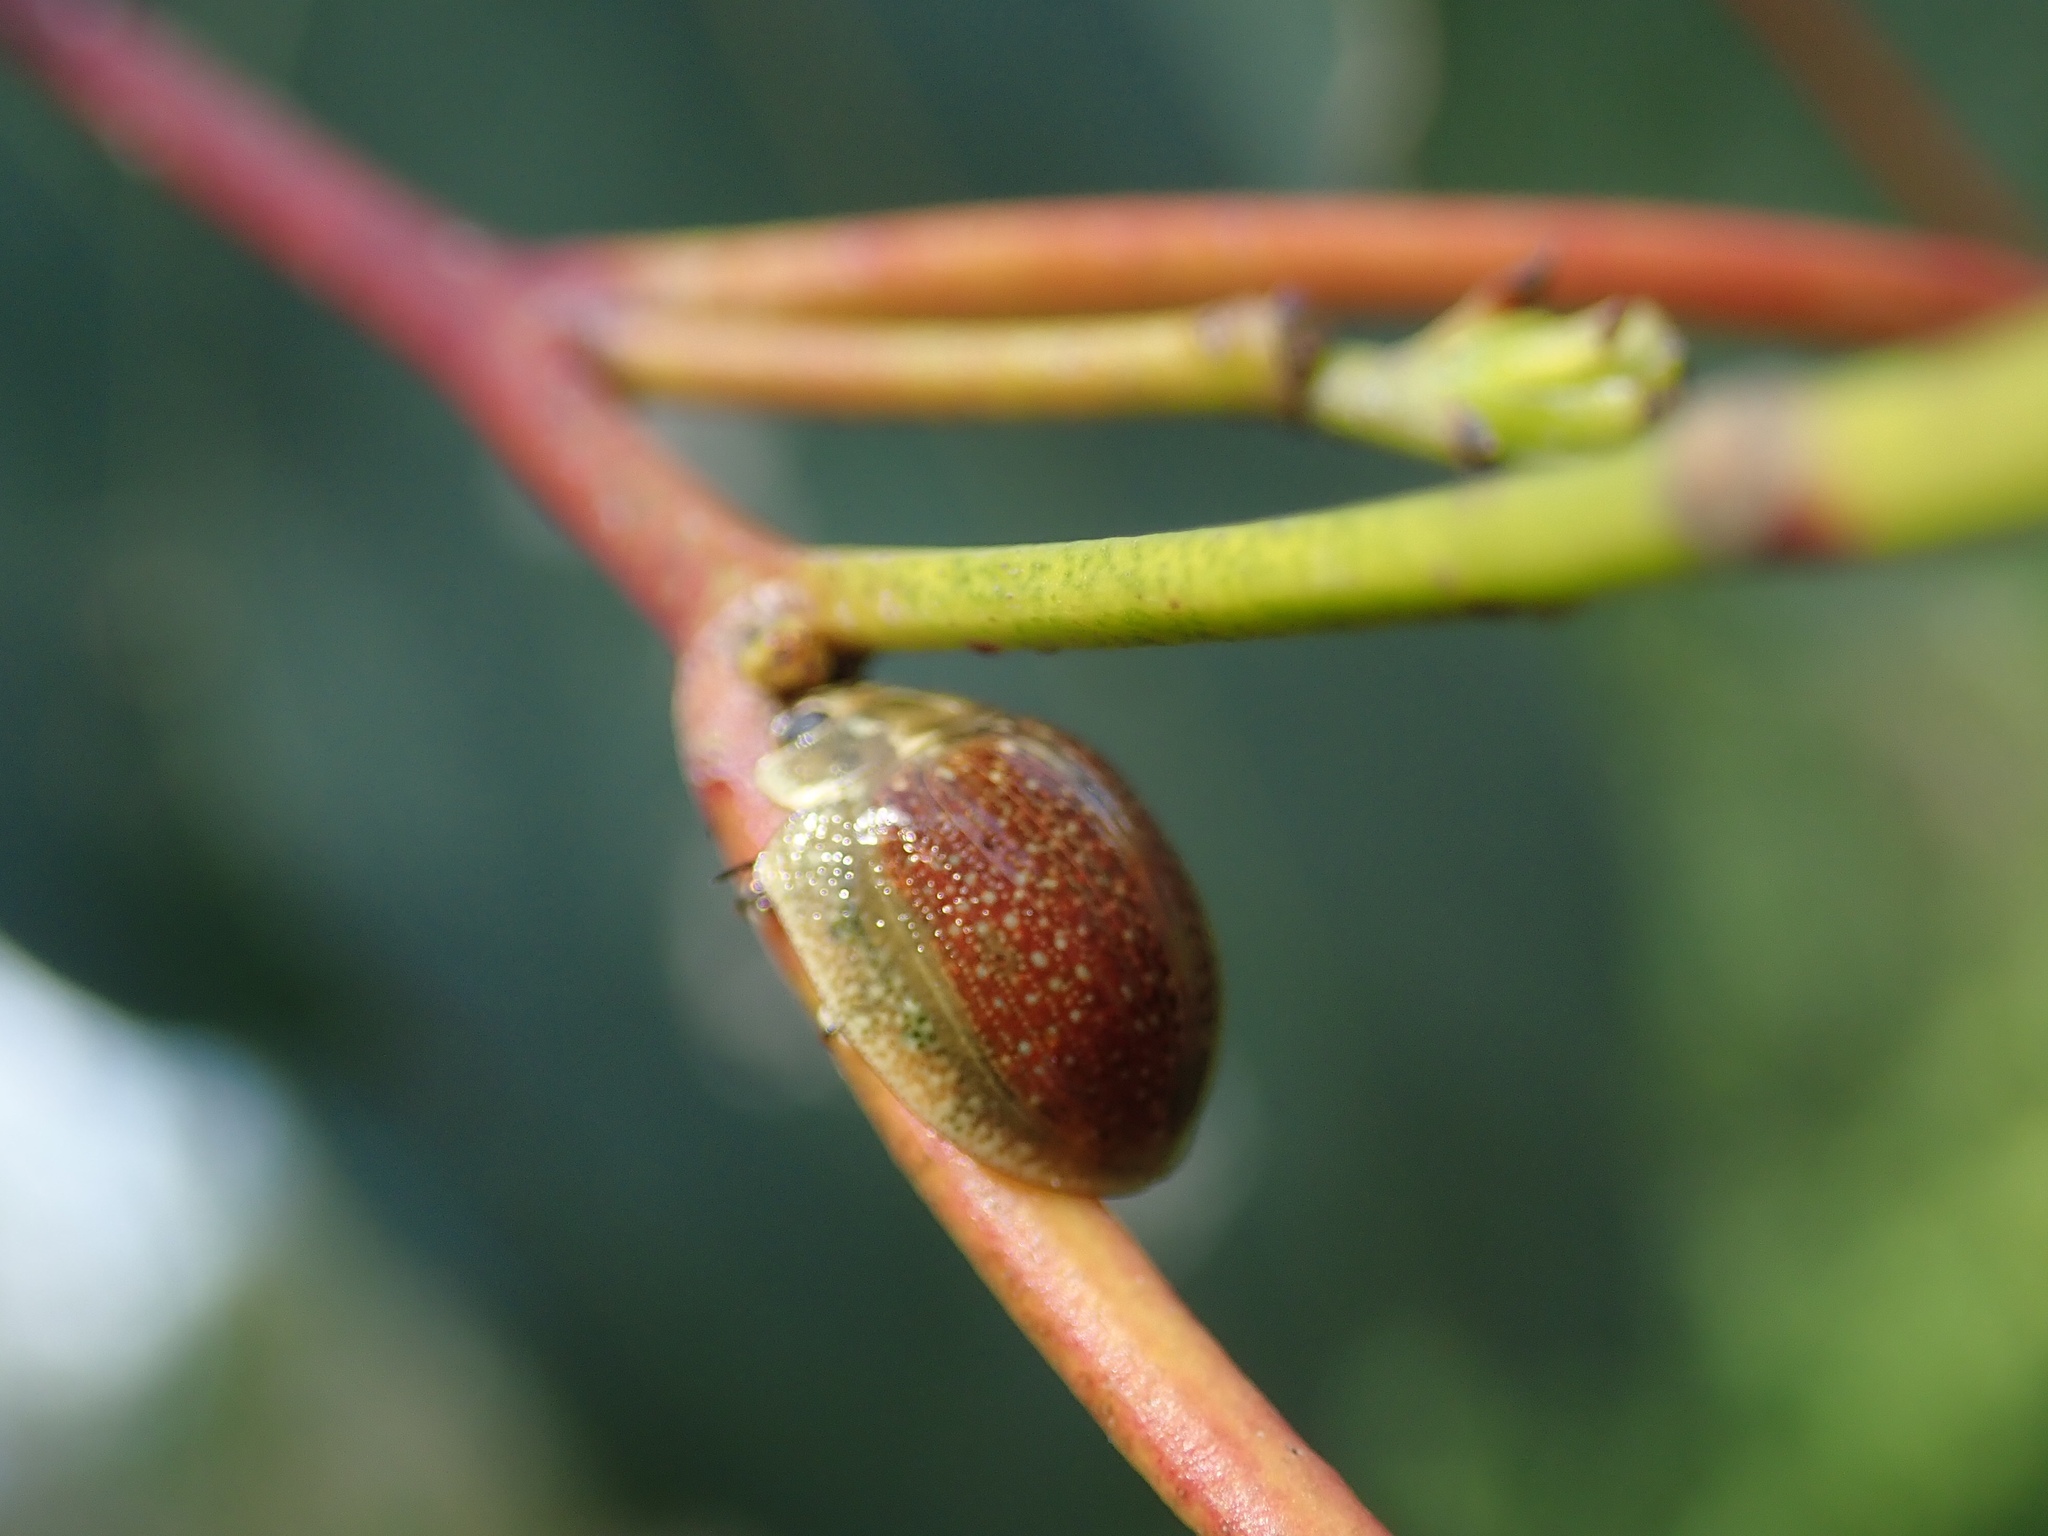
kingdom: Animalia
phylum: Arthropoda
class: Insecta
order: Coleoptera
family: Chrysomelidae
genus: Paropsisterna
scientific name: Paropsisterna cloelia
